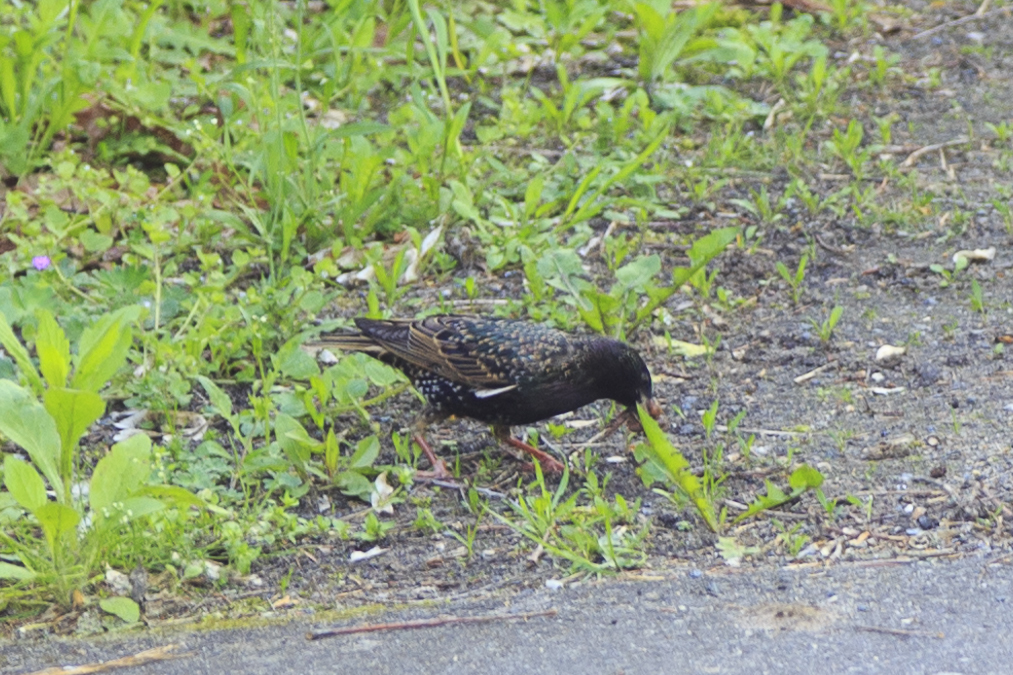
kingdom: Animalia
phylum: Chordata
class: Aves
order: Passeriformes
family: Sturnidae
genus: Sturnus
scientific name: Sturnus vulgaris
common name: Common starling
